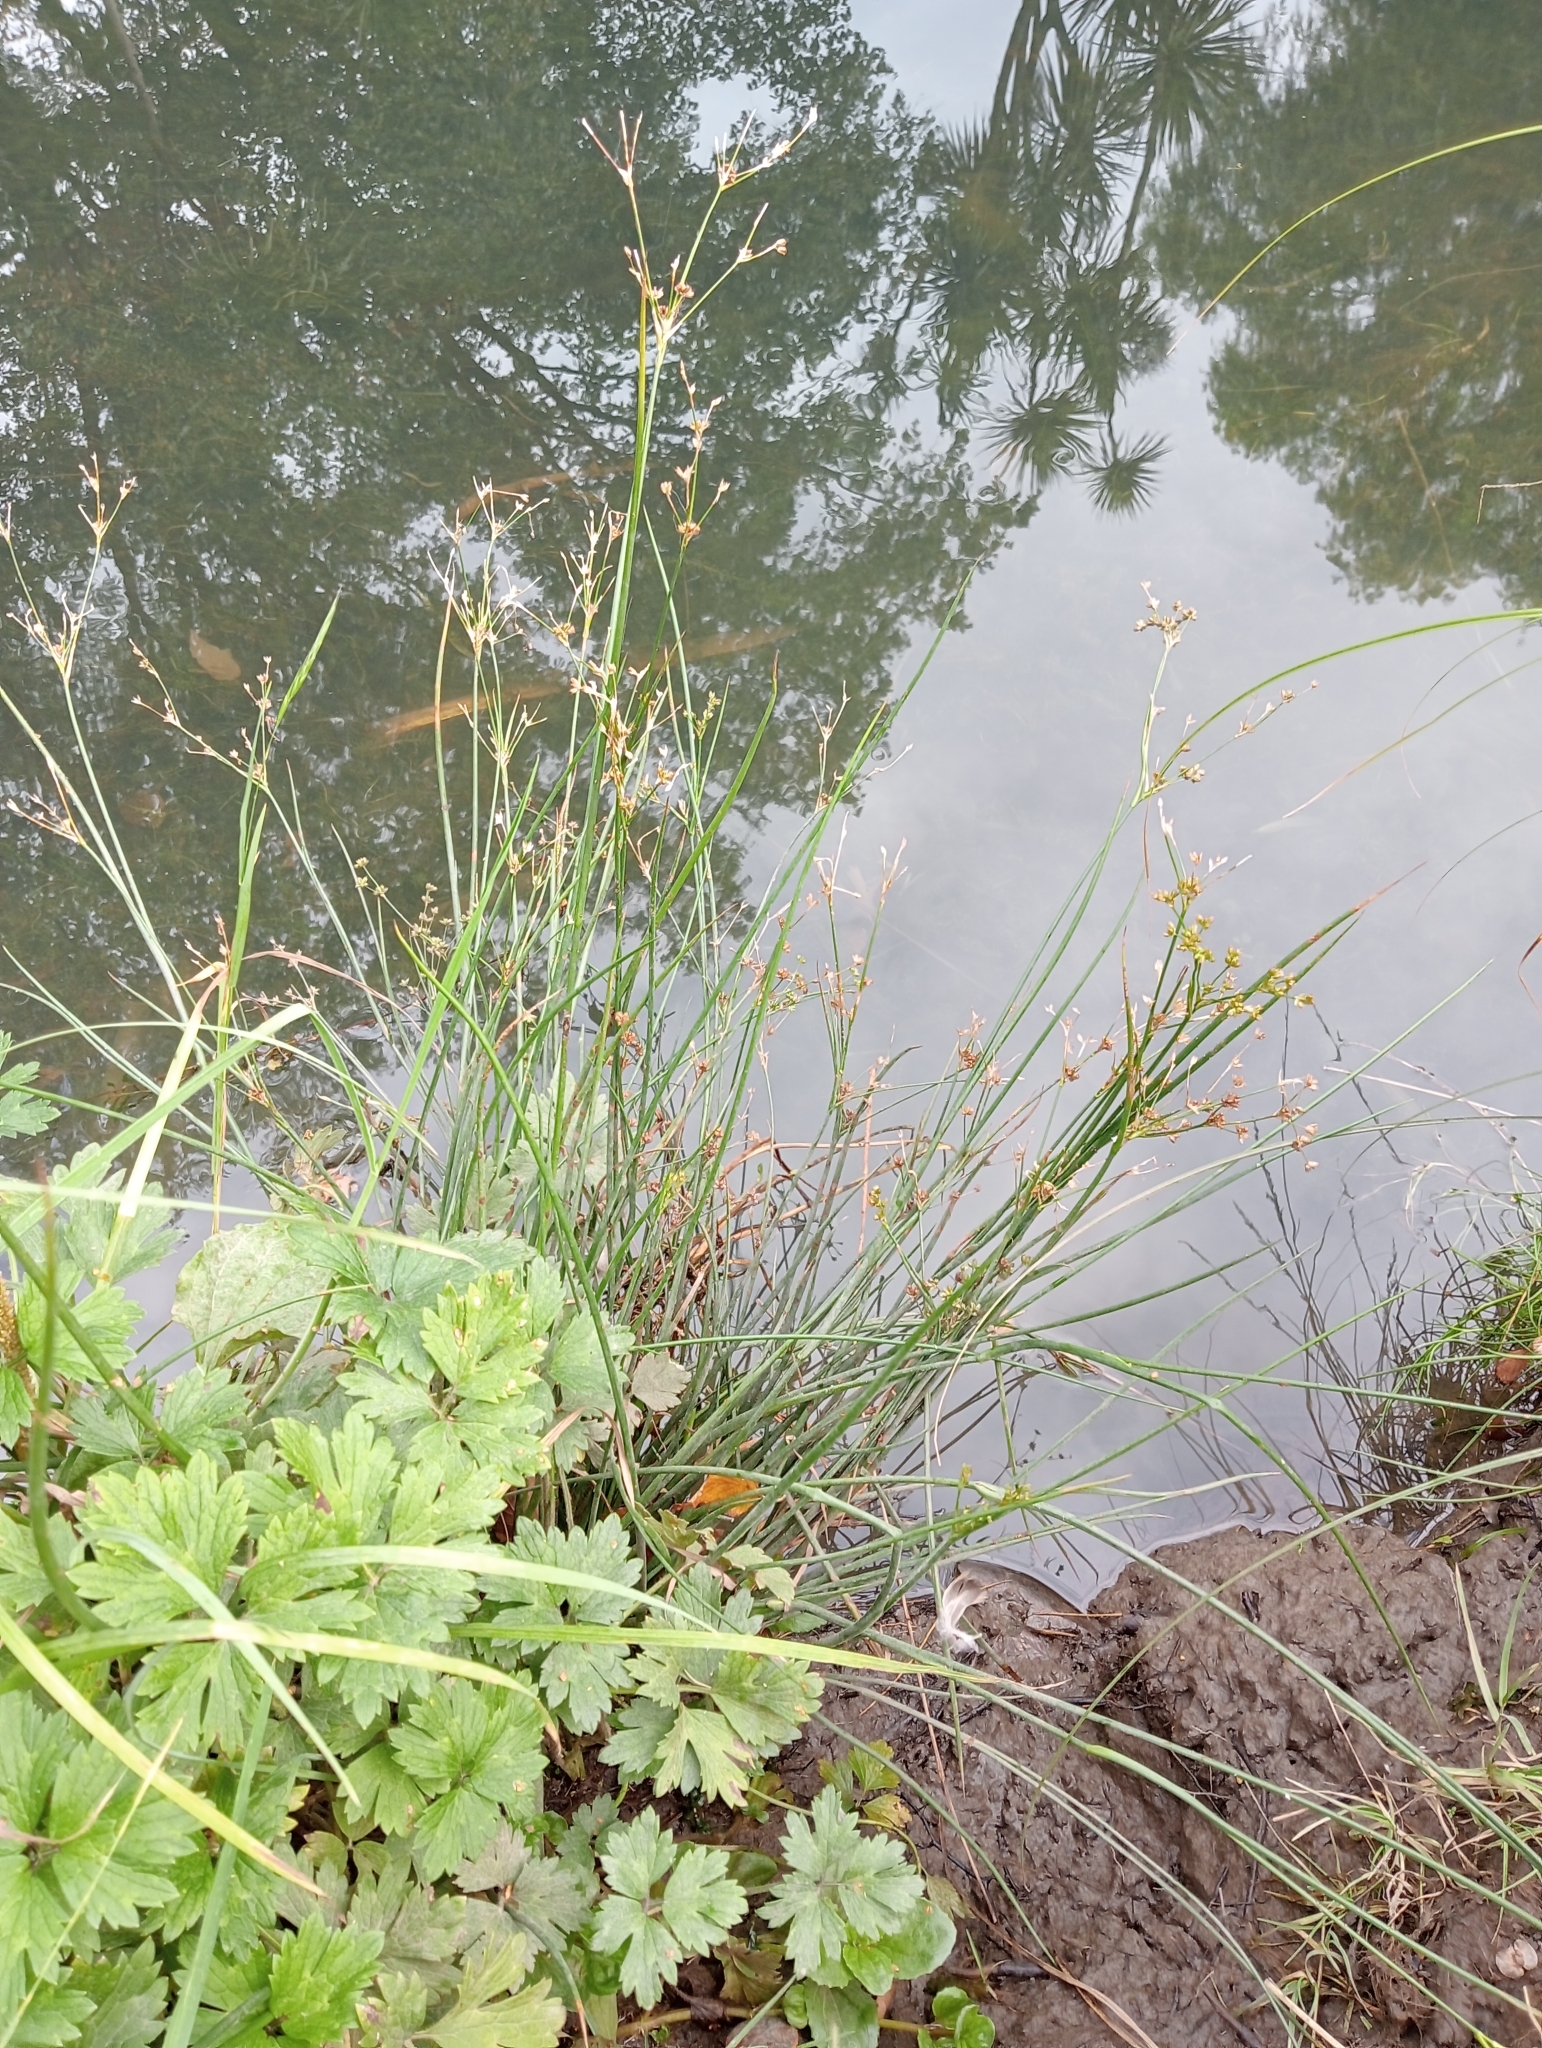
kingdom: Plantae
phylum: Tracheophyta
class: Liliopsida
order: Poales
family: Juncaceae
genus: Juncus
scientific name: Juncus microcephalus
